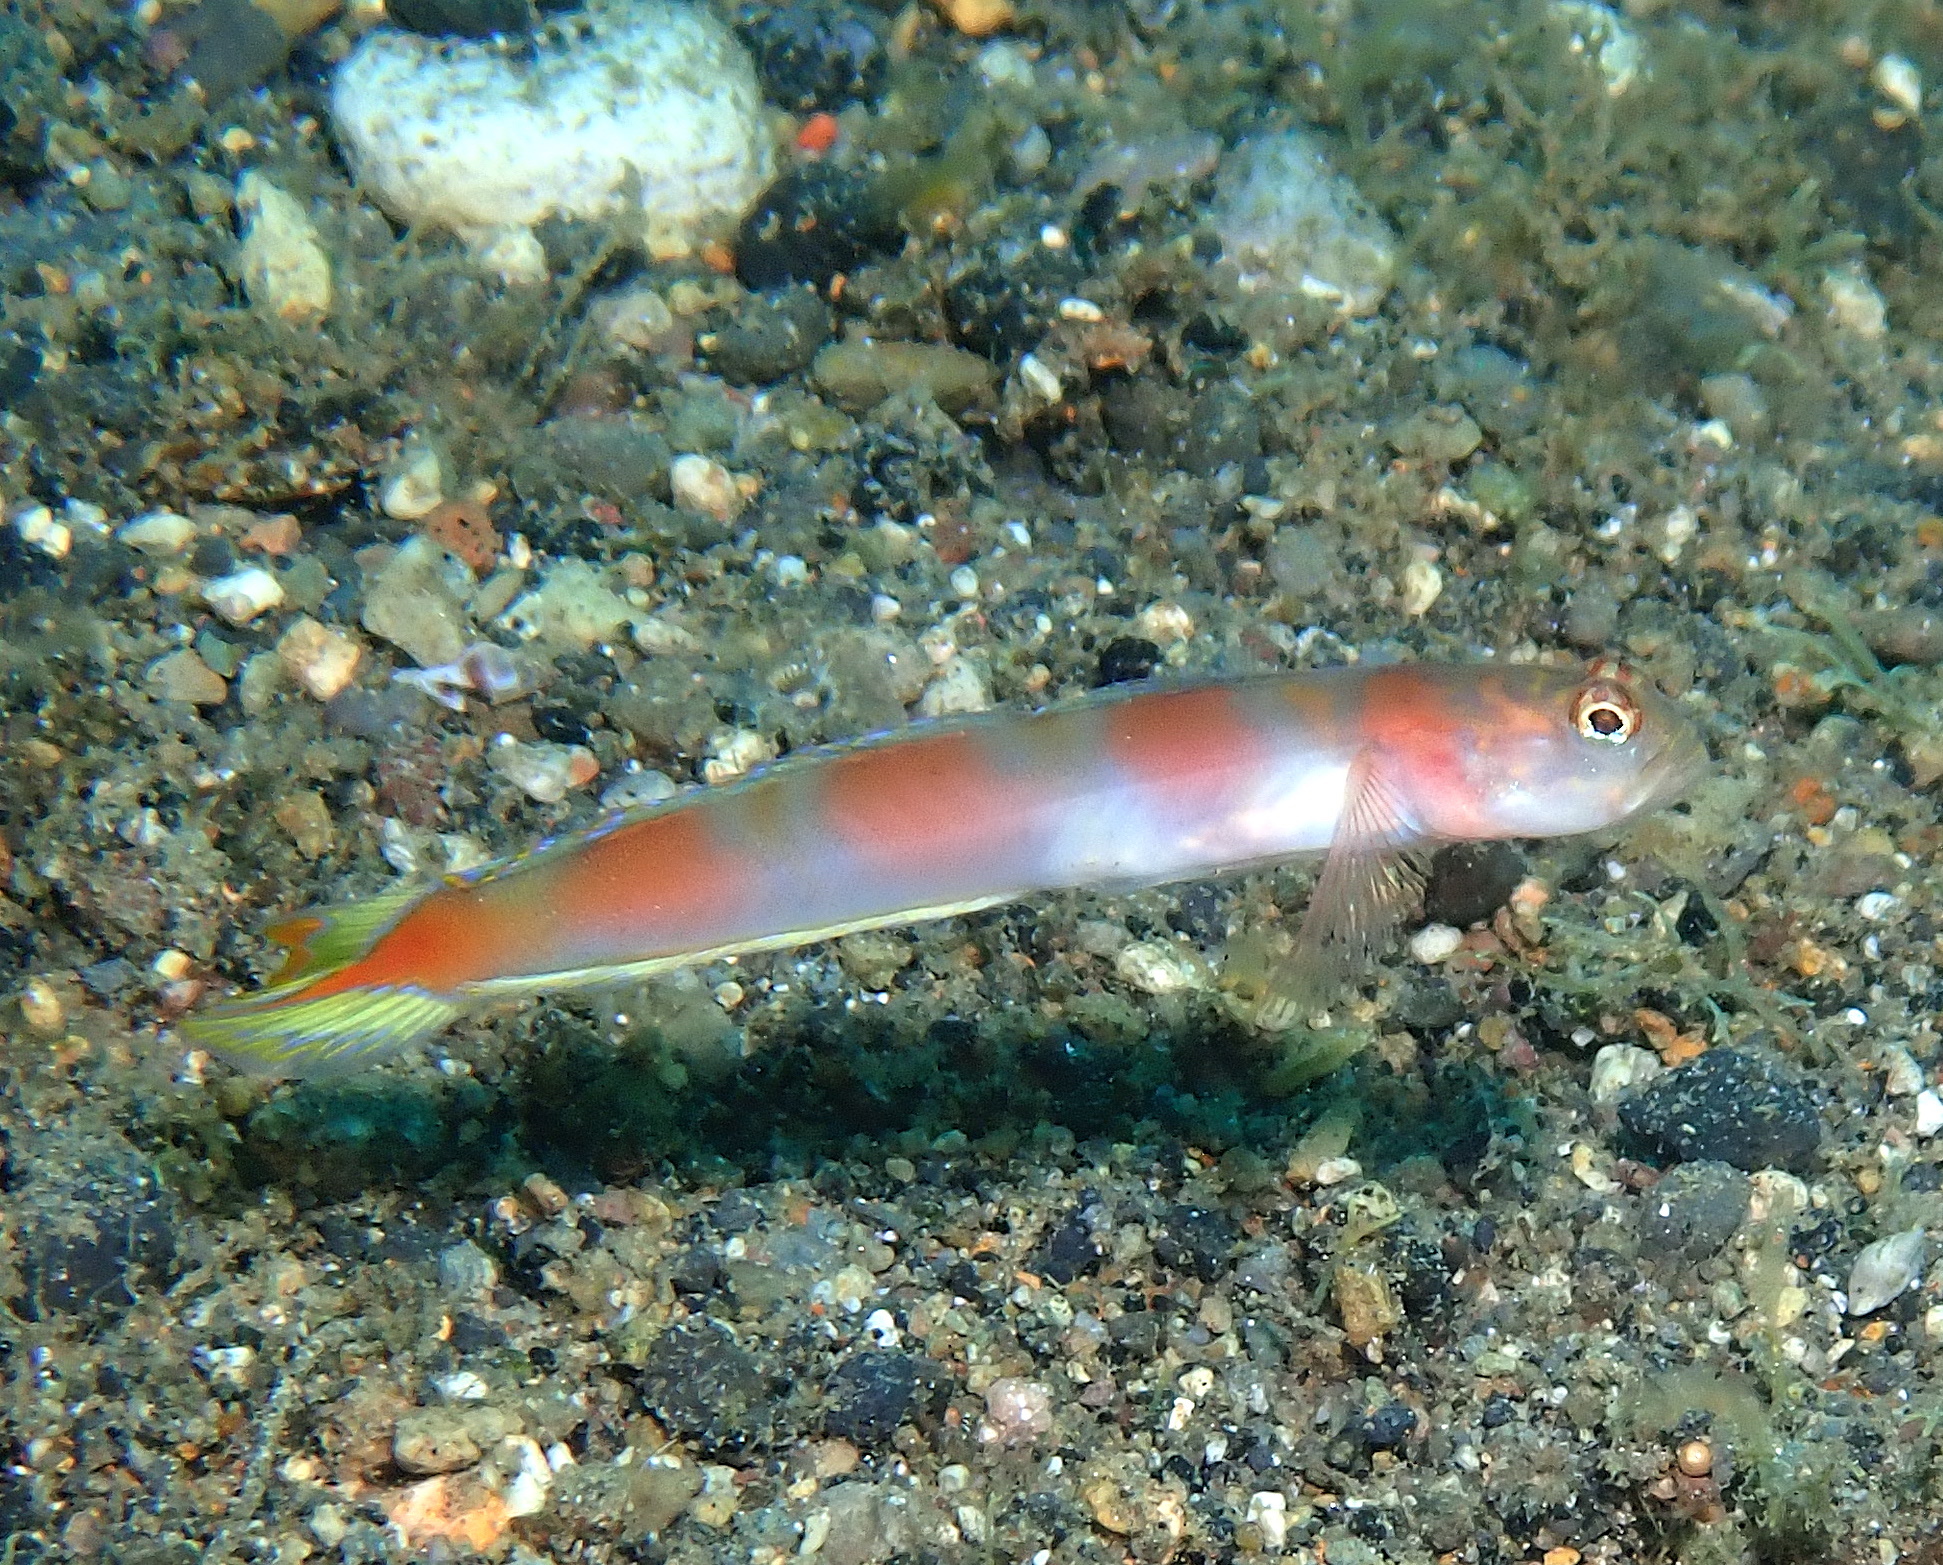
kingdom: Animalia
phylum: Chordata
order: Perciformes
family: Gobiidae
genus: Amblyeleotris
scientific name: Amblyeleotris yanoi
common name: Flag-tail shrimp-goby
